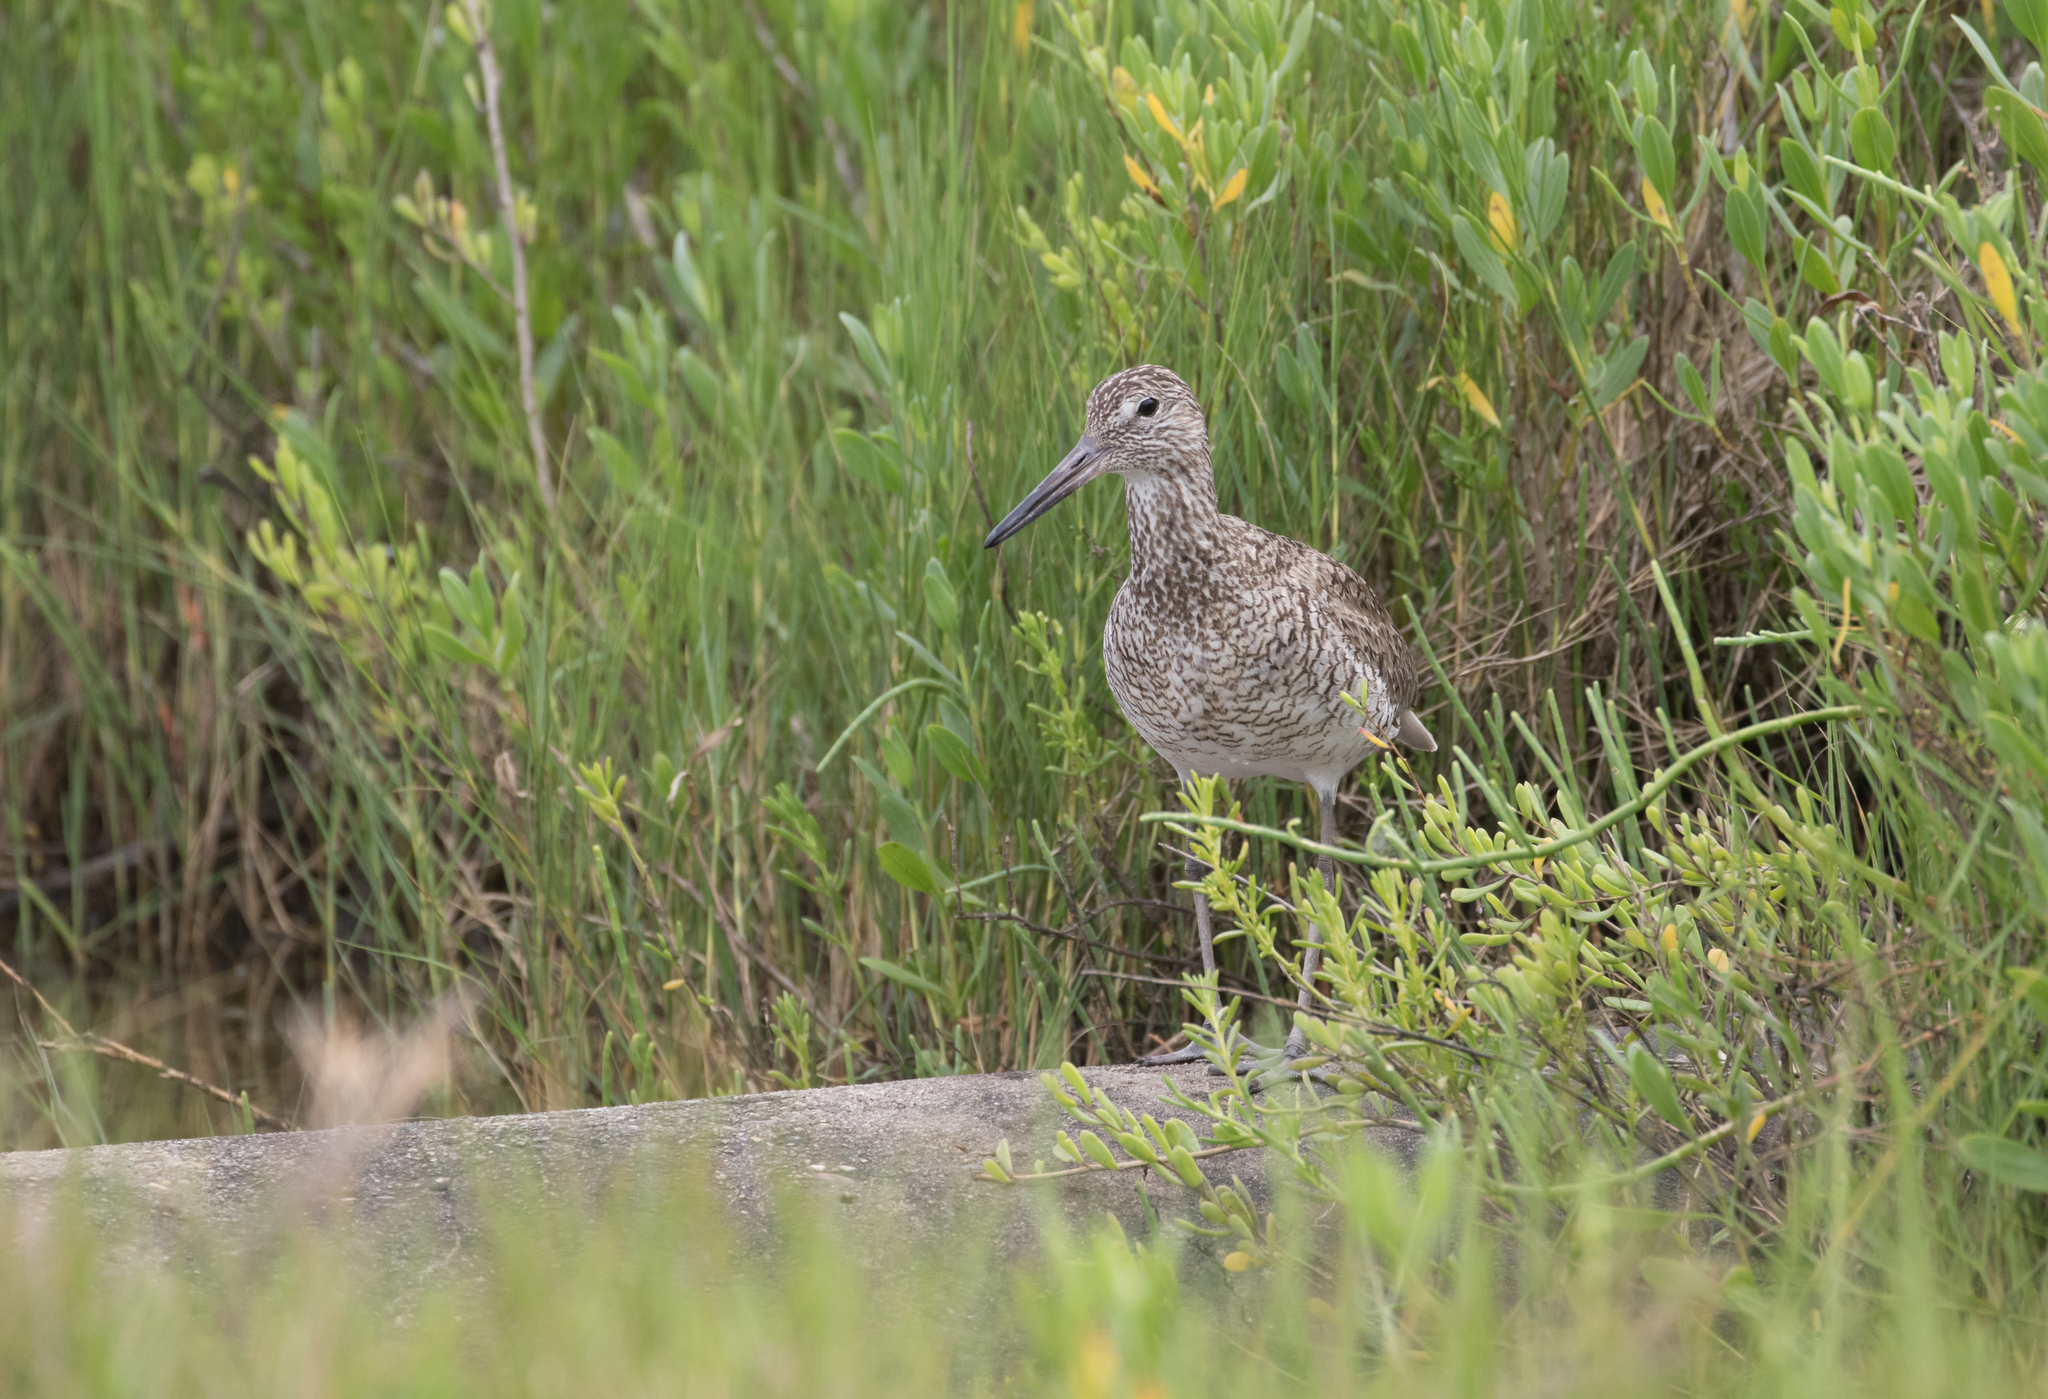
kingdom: Animalia
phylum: Chordata
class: Aves
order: Charadriiformes
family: Scolopacidae
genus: Tringa
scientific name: Tringa semipalmata
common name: Willet
